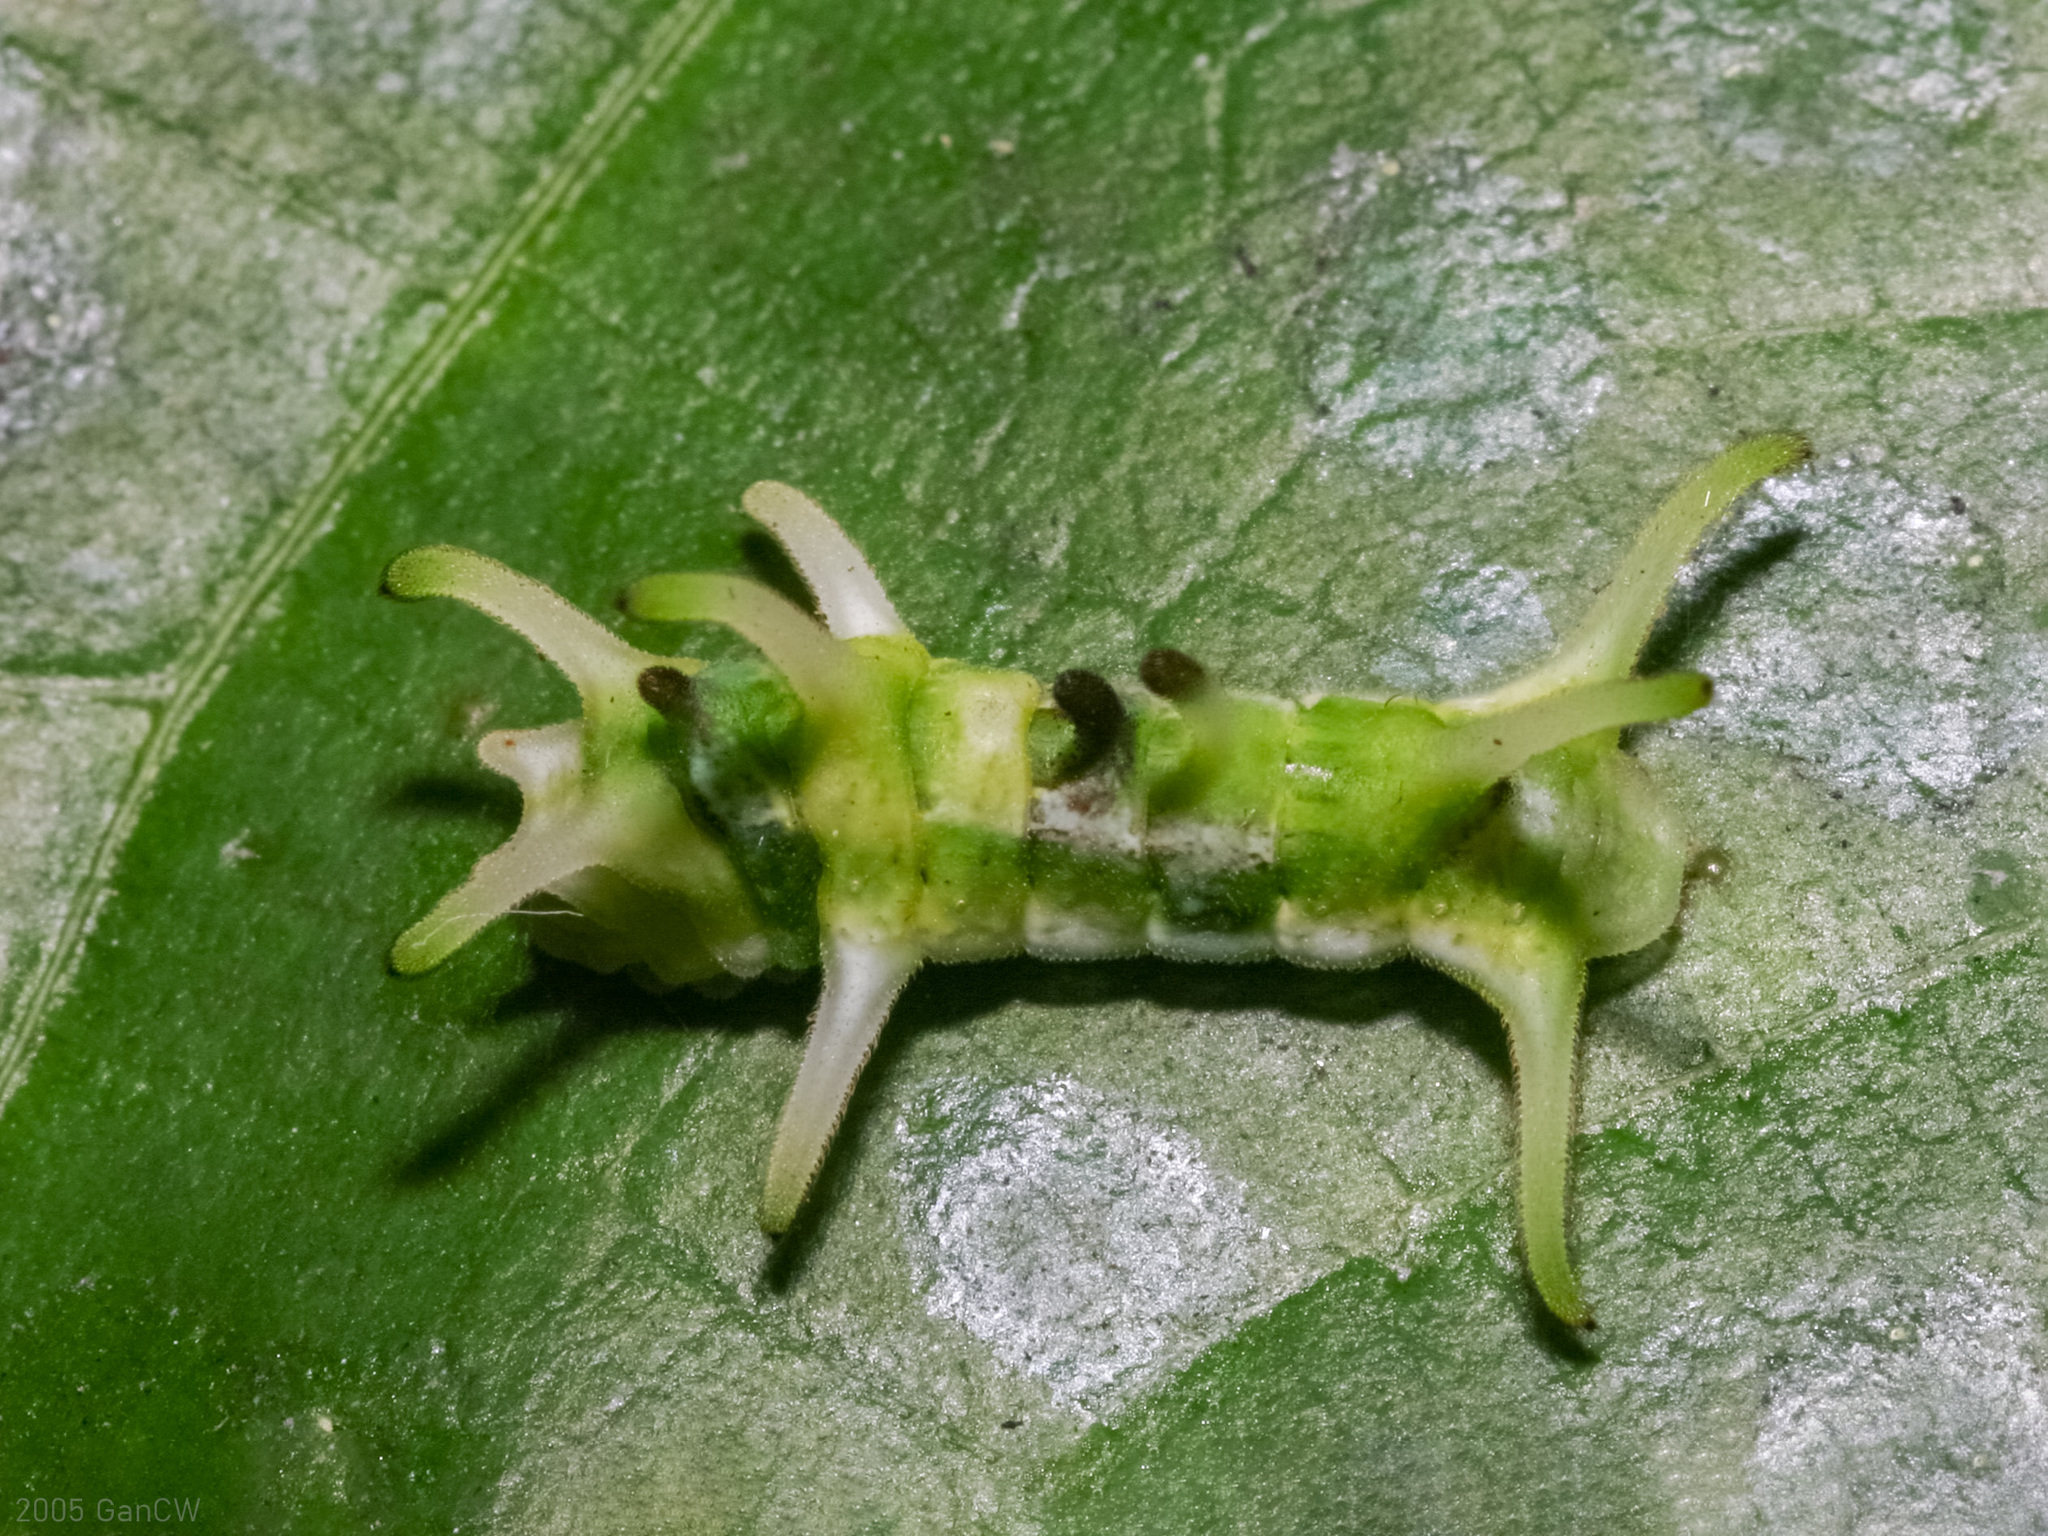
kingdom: Animalia
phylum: Arthropoda
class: Insecta
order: Lepidoptera
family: Lycaenidae
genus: Horaga
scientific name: Horaga syrinx
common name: Ambon onyx
